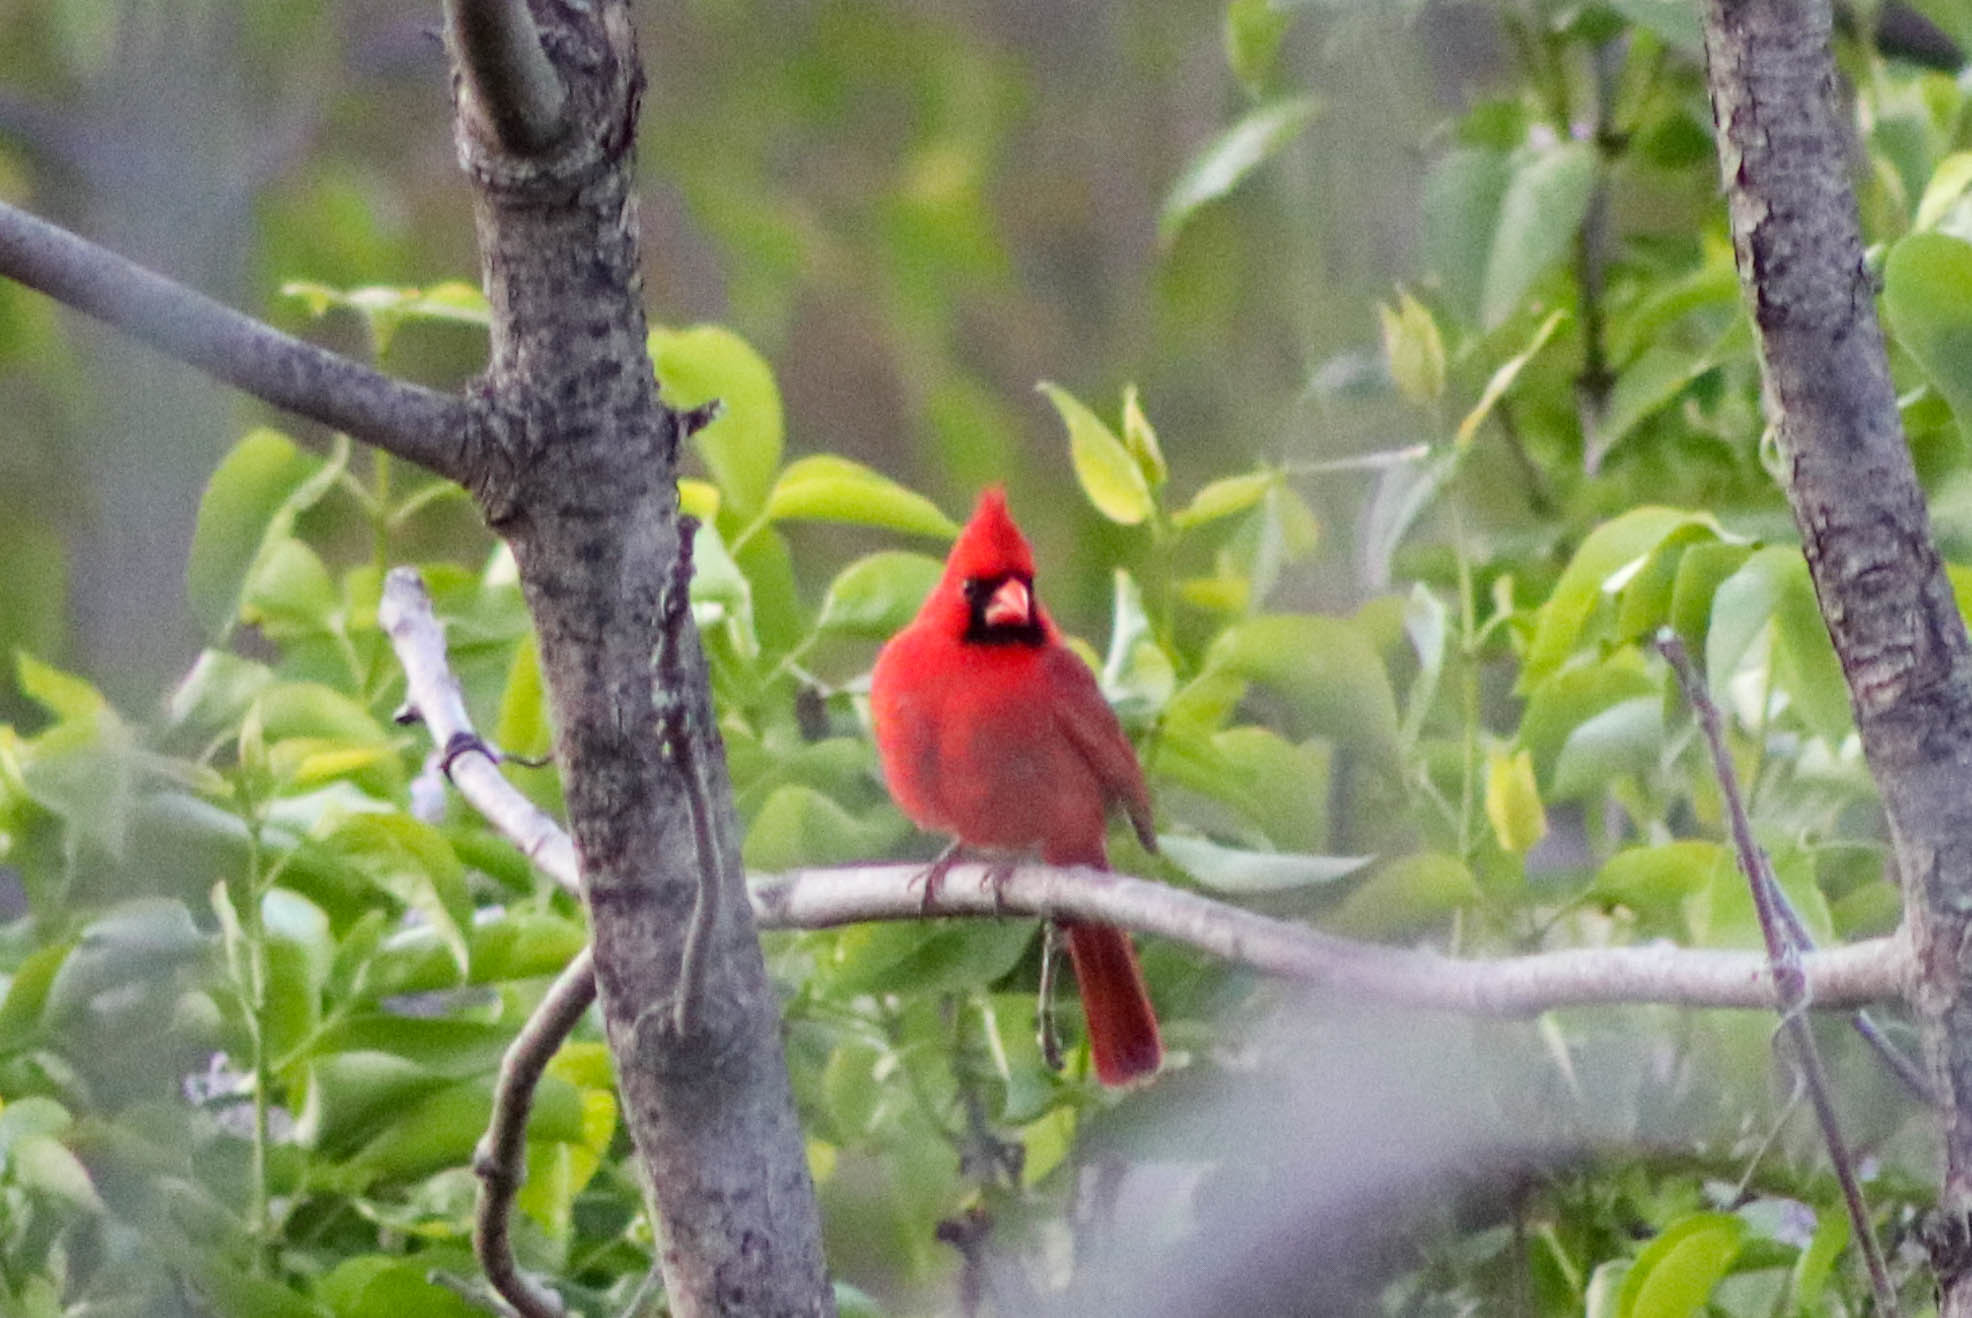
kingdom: Animalia
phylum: Chordata
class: Aves
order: Passeriformes
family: Cardinalidae
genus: Cardinalis
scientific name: Cardinalis cardinalis
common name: Northern cardinal
